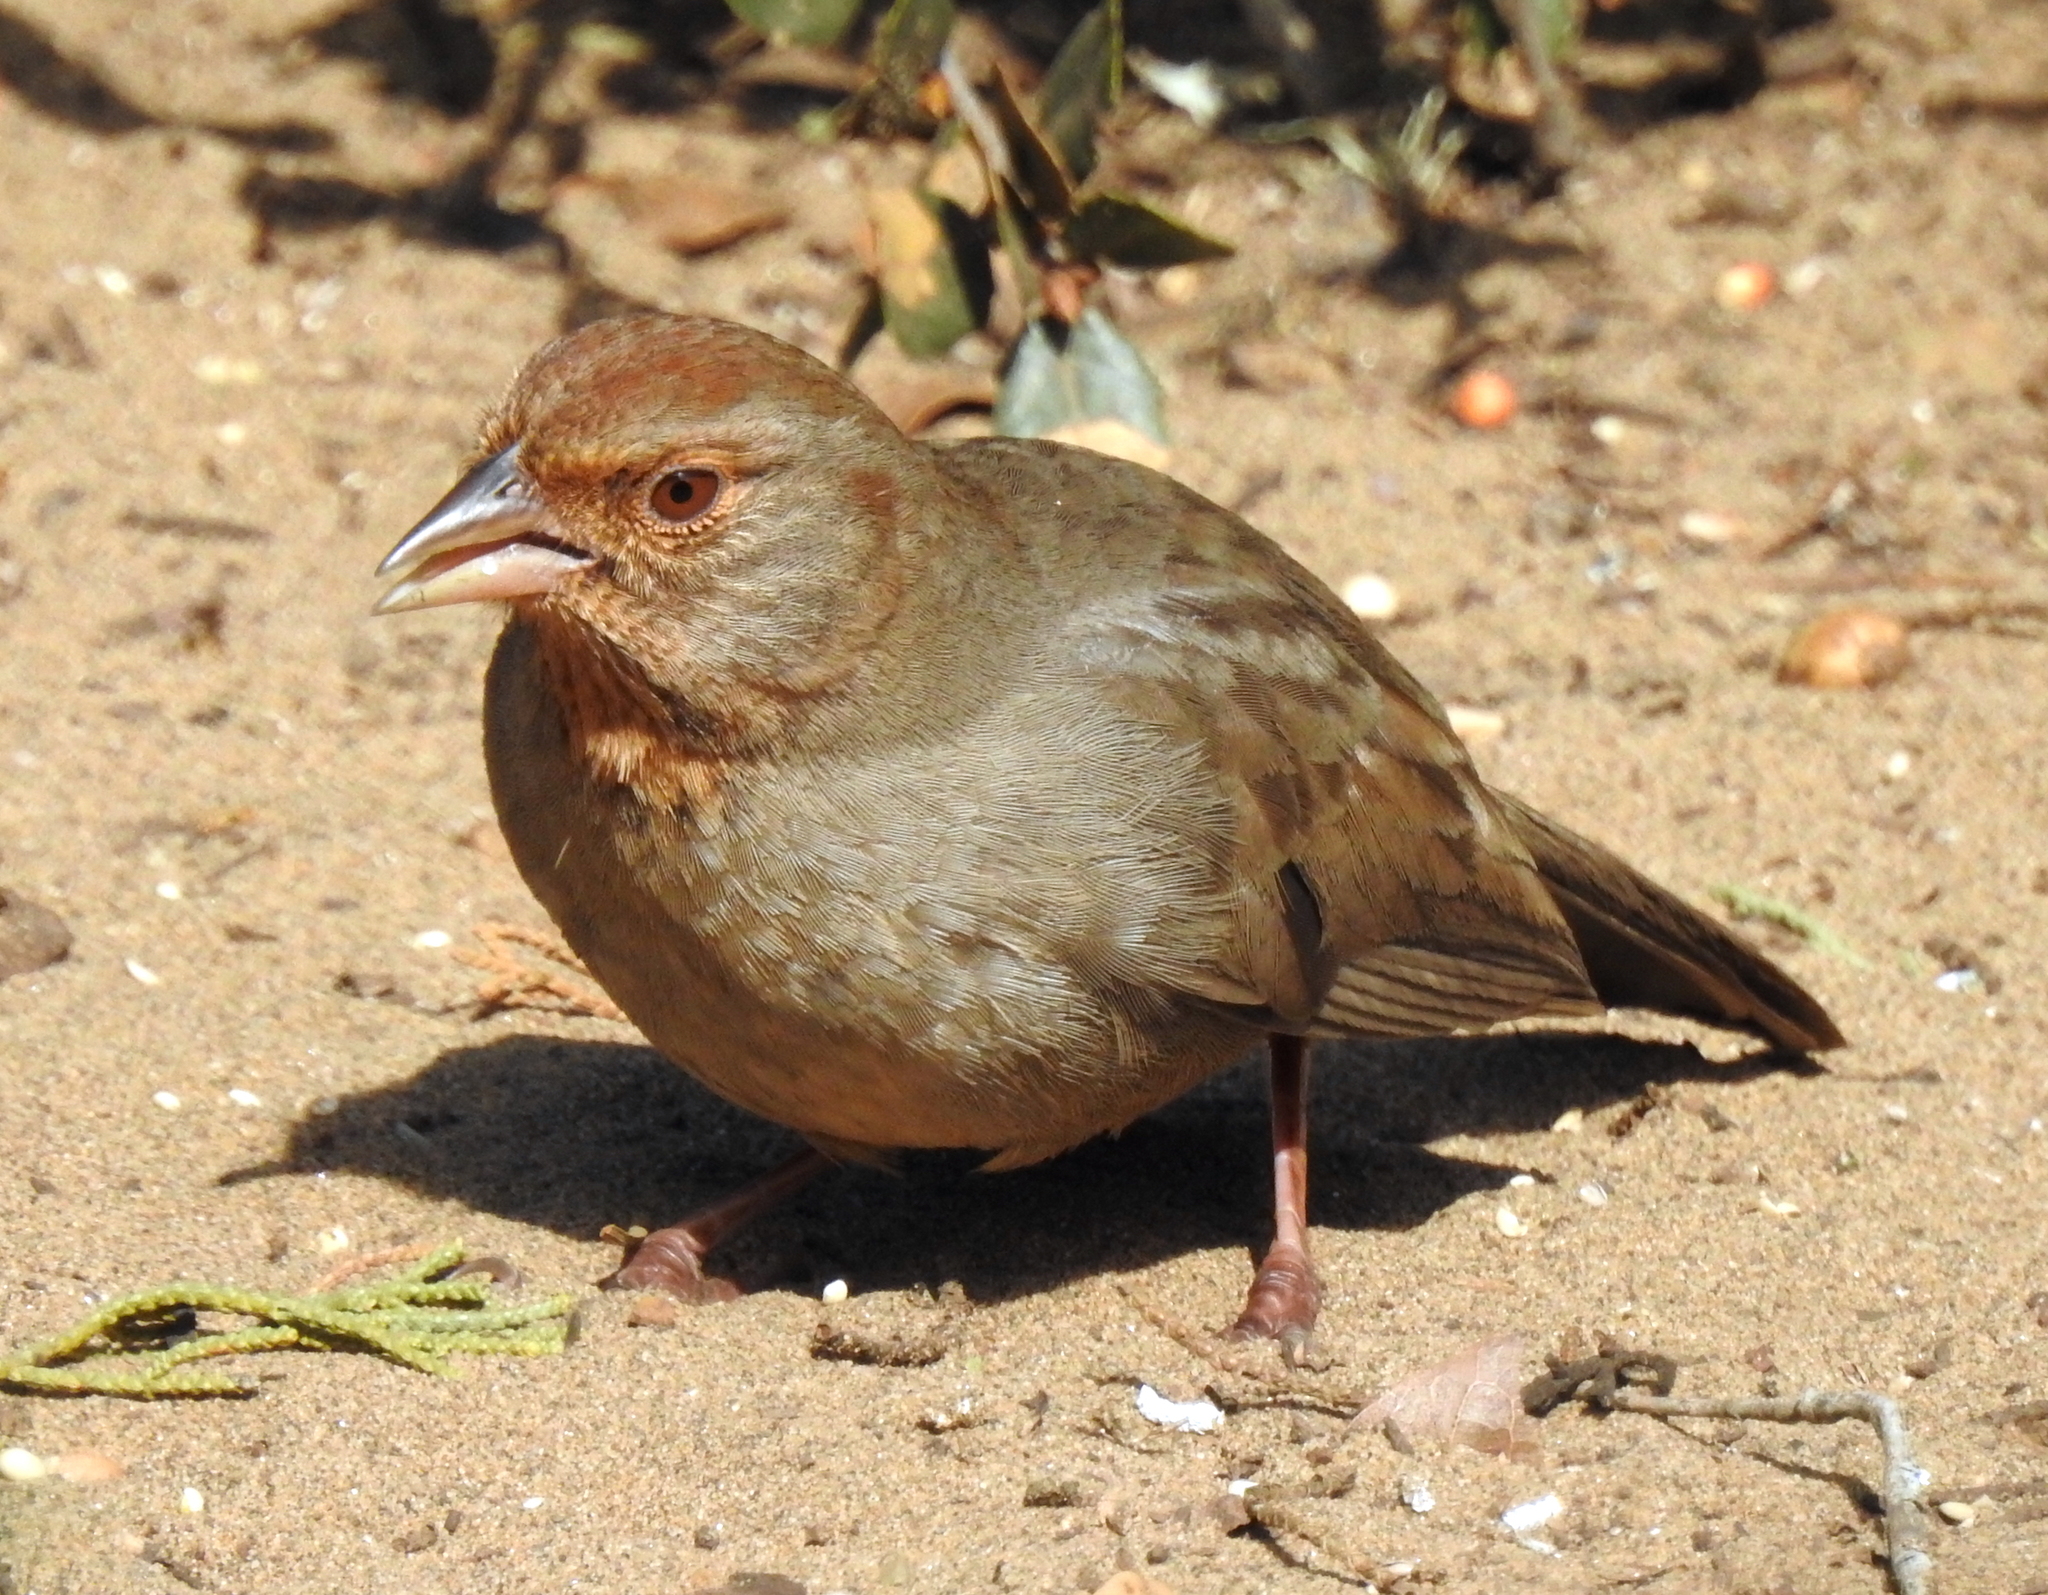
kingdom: Animalia
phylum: Chordata
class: Aves
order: Passeriformes
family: Passerellidae
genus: Melozone
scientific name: Melozone crissalis
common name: California towhee
